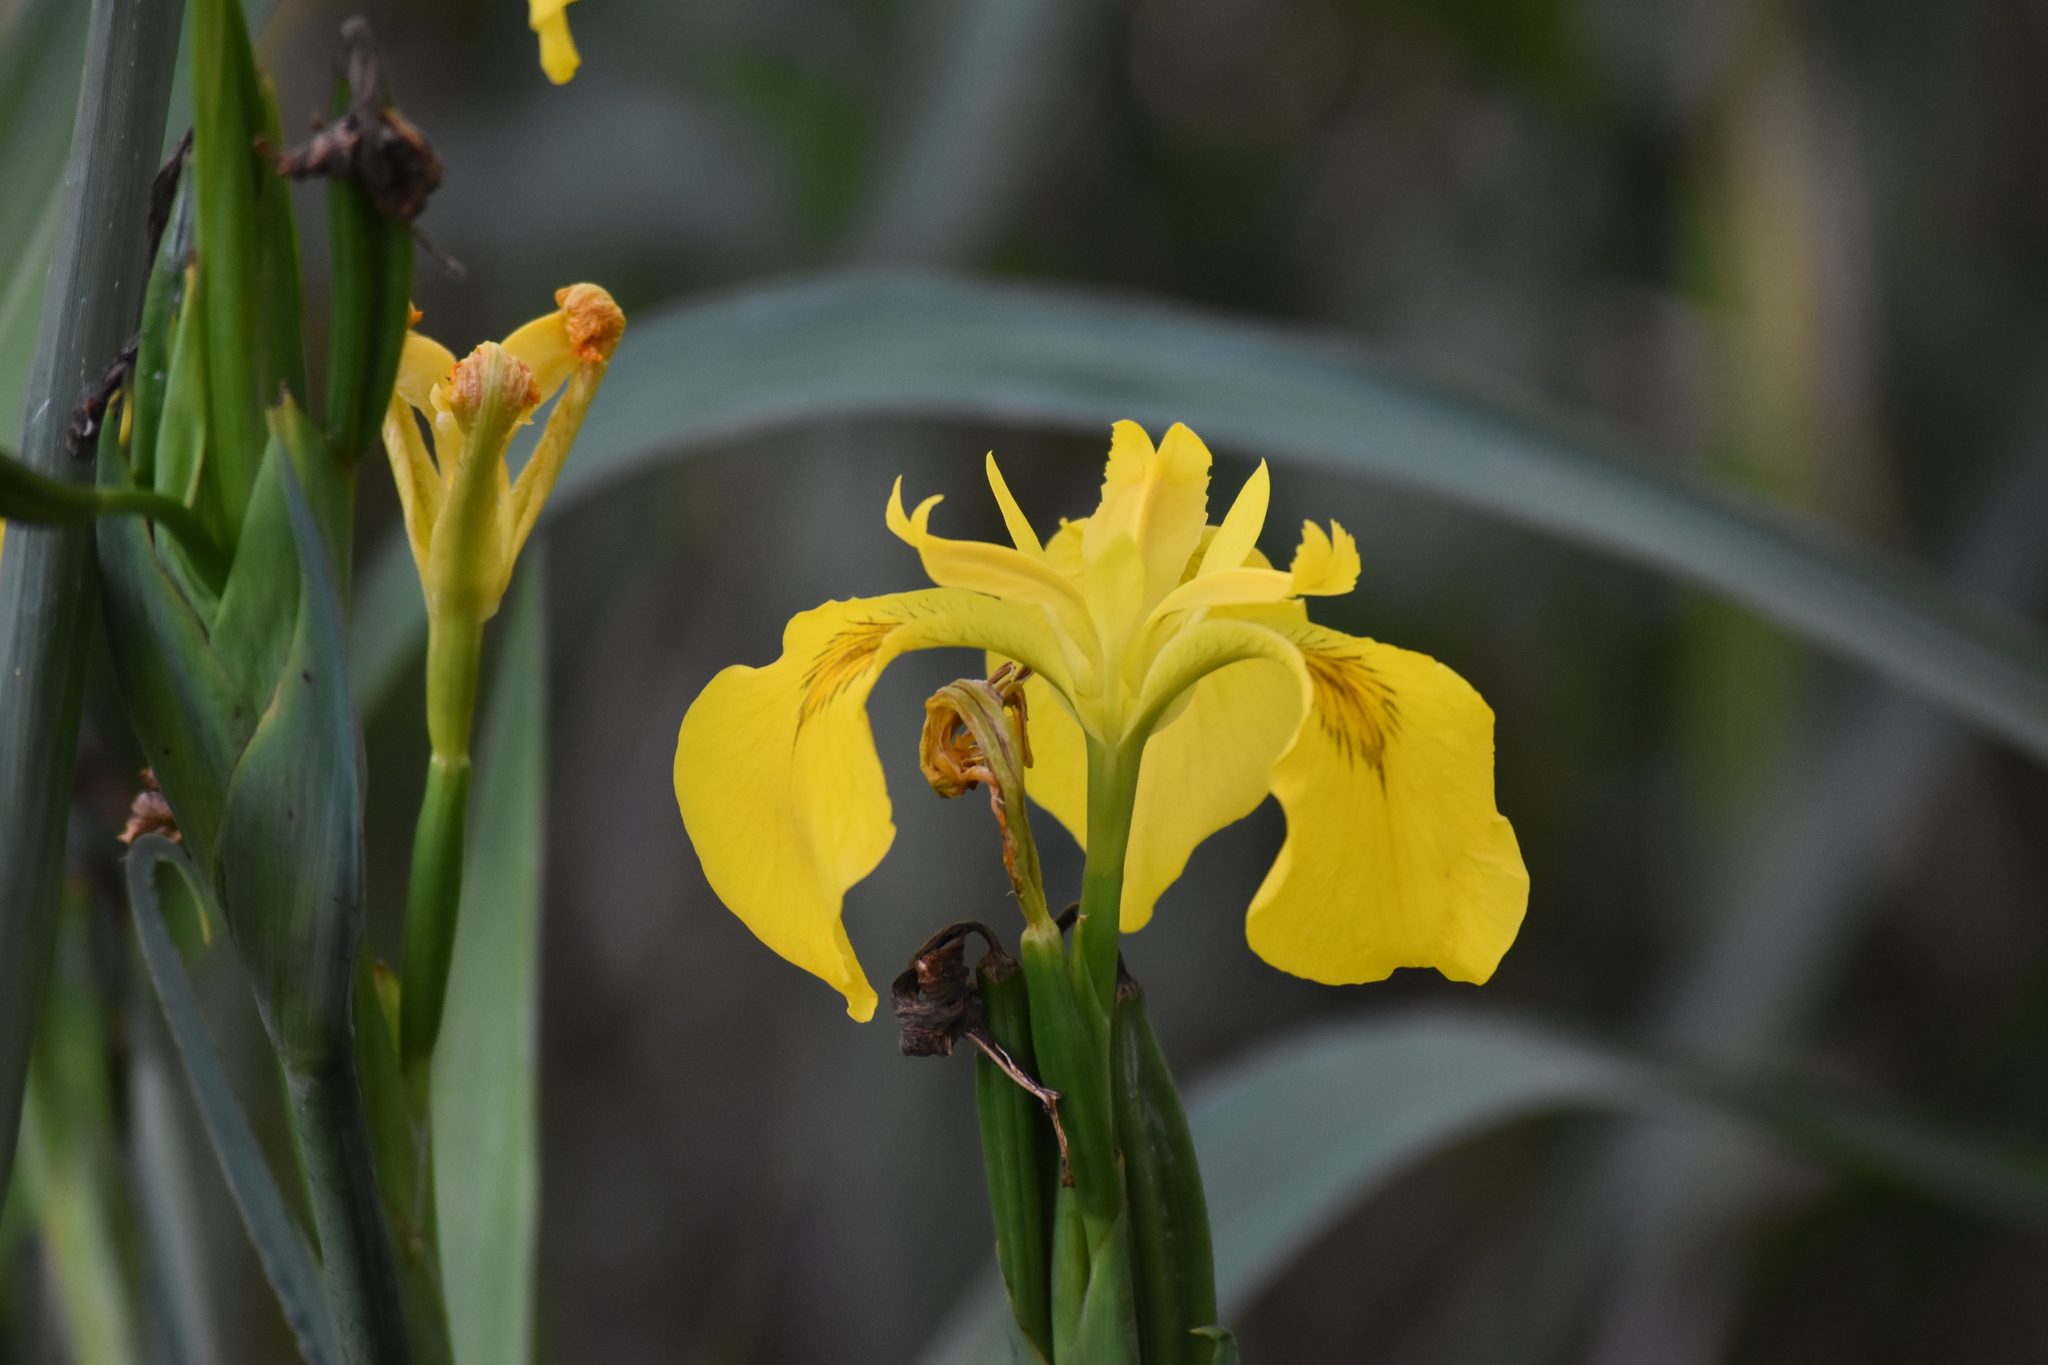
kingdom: Plantae
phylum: Tracheophyta
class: Liliopsida
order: Asparagales
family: Iridaceae
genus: Iris
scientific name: Iris pseudacorus
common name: Yellow flag
